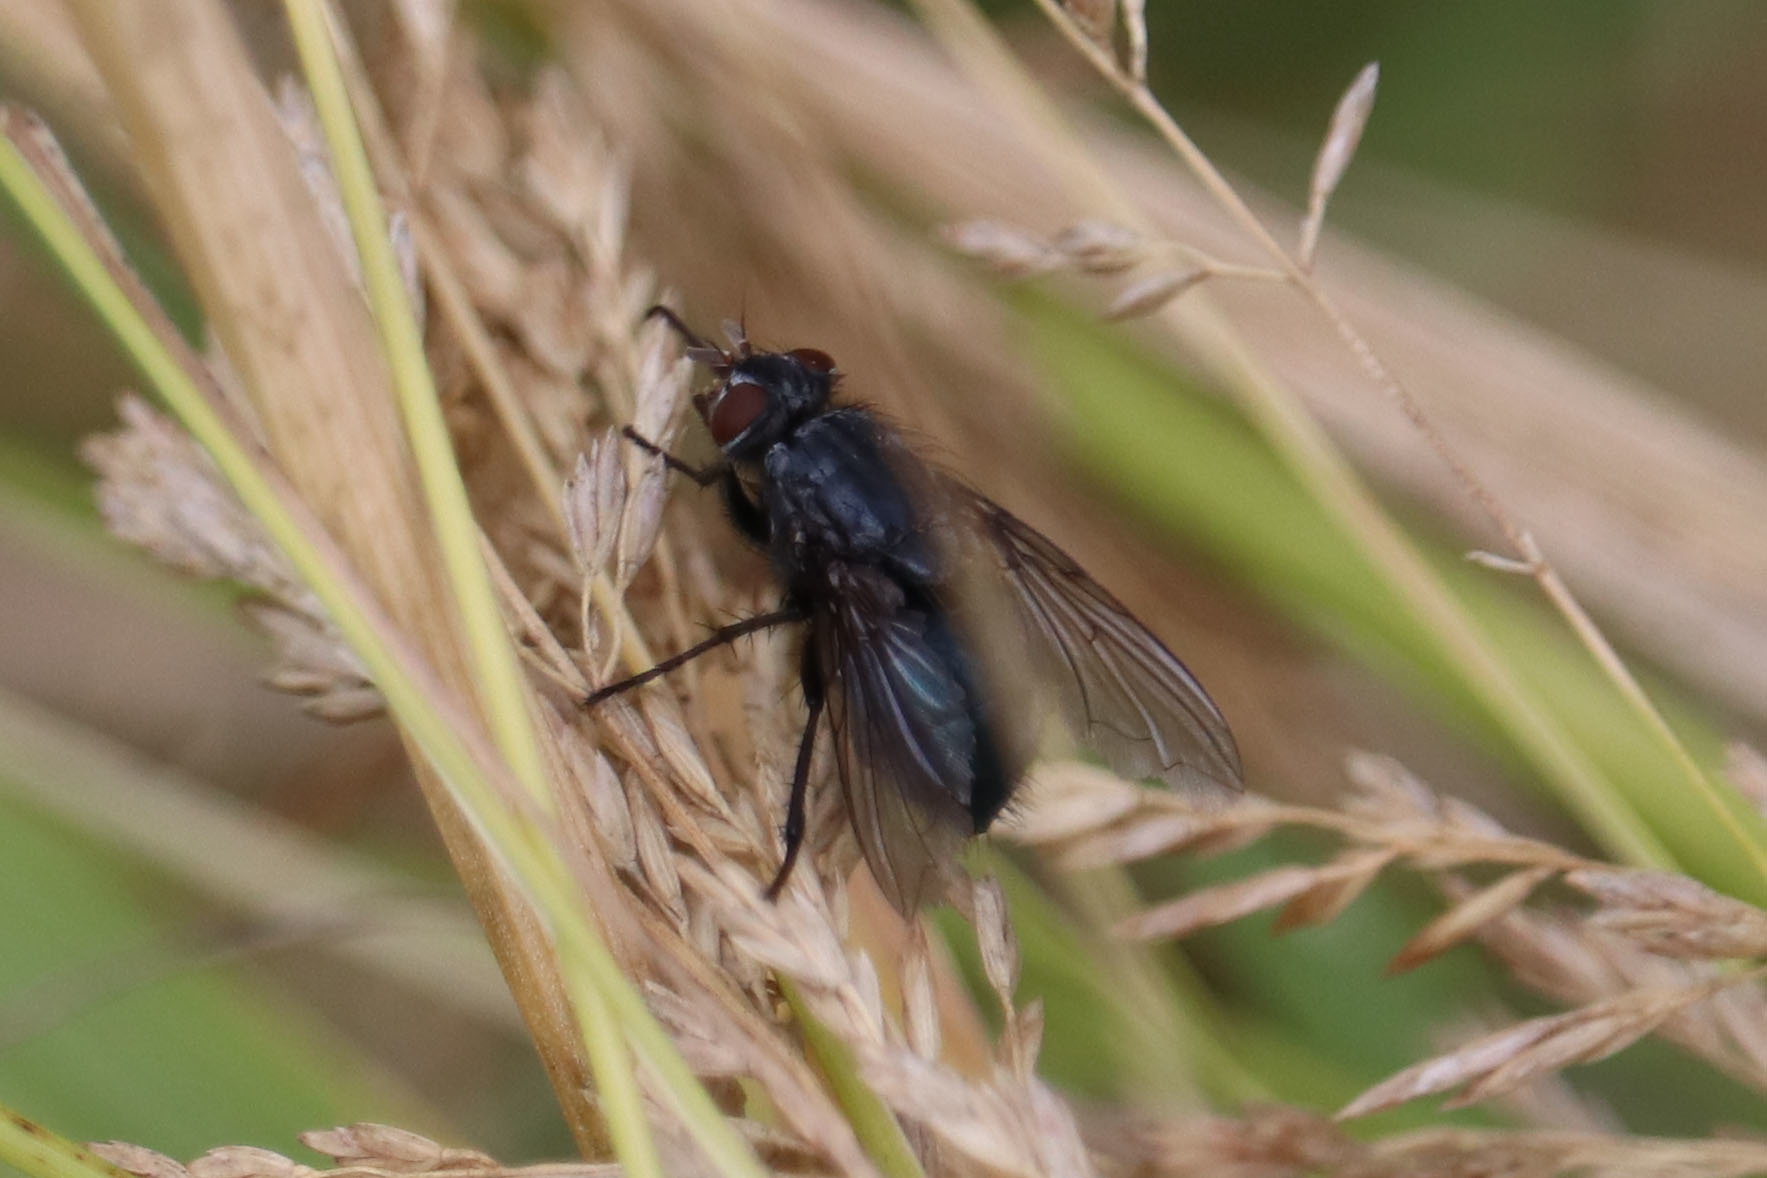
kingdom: Animalia
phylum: Arthropoda
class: Insecta
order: Diptera
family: Calliphoridae
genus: Cynomya
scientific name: Cynomya cadaverina
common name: Shiny blue bottle fly
